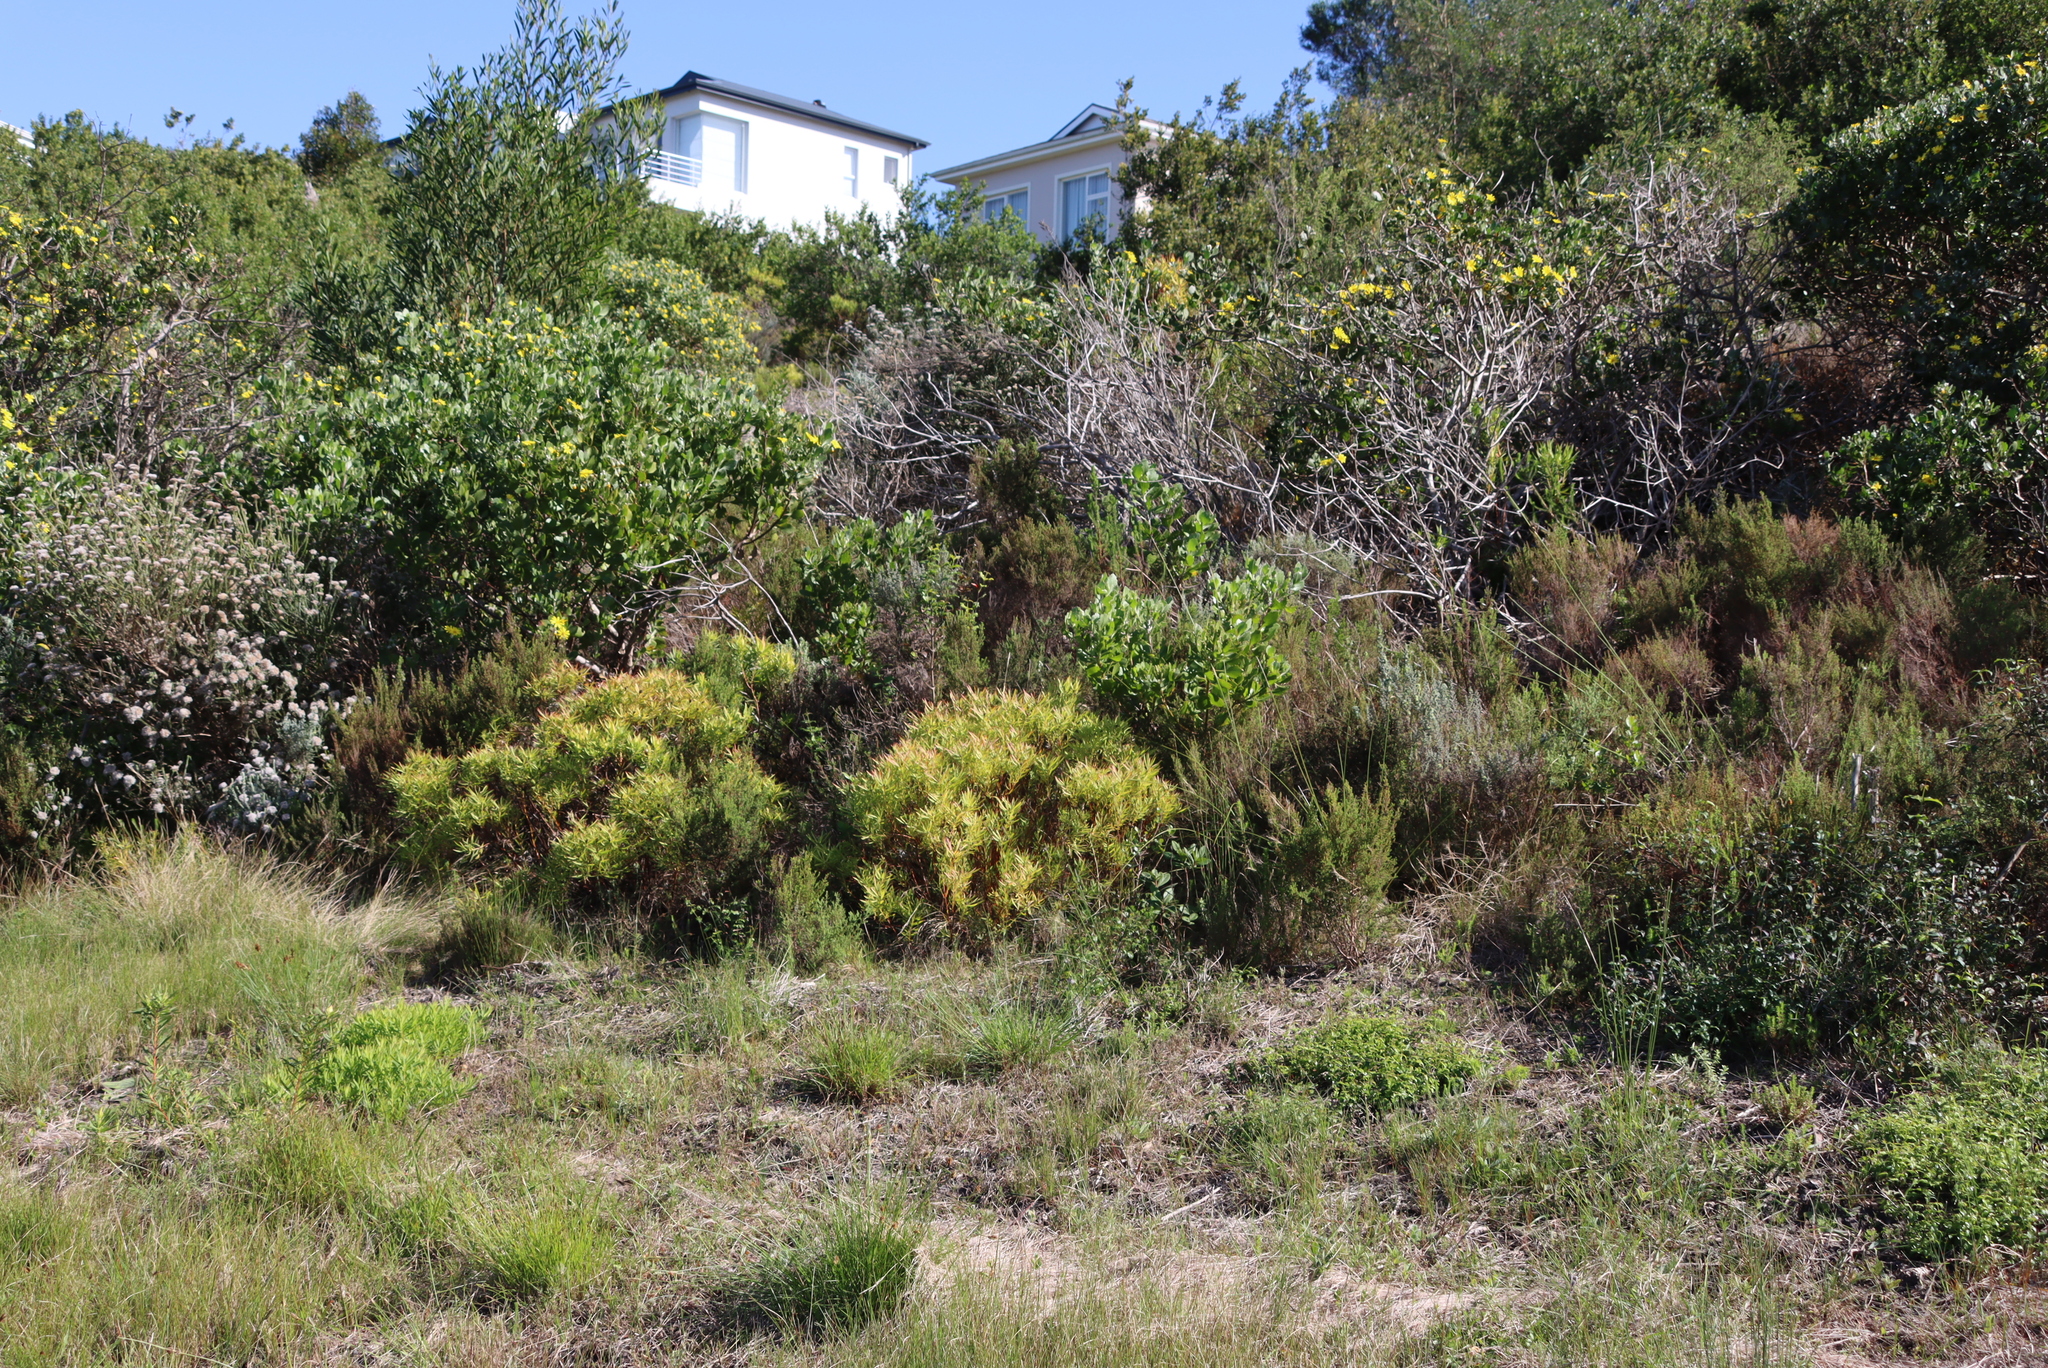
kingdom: Plantae
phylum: Tracheophyta
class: Magnoliopsida
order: Proteales
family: Proteaceae
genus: Leucadendron
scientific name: Leucadendron salignum
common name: Common sunshine conebush
